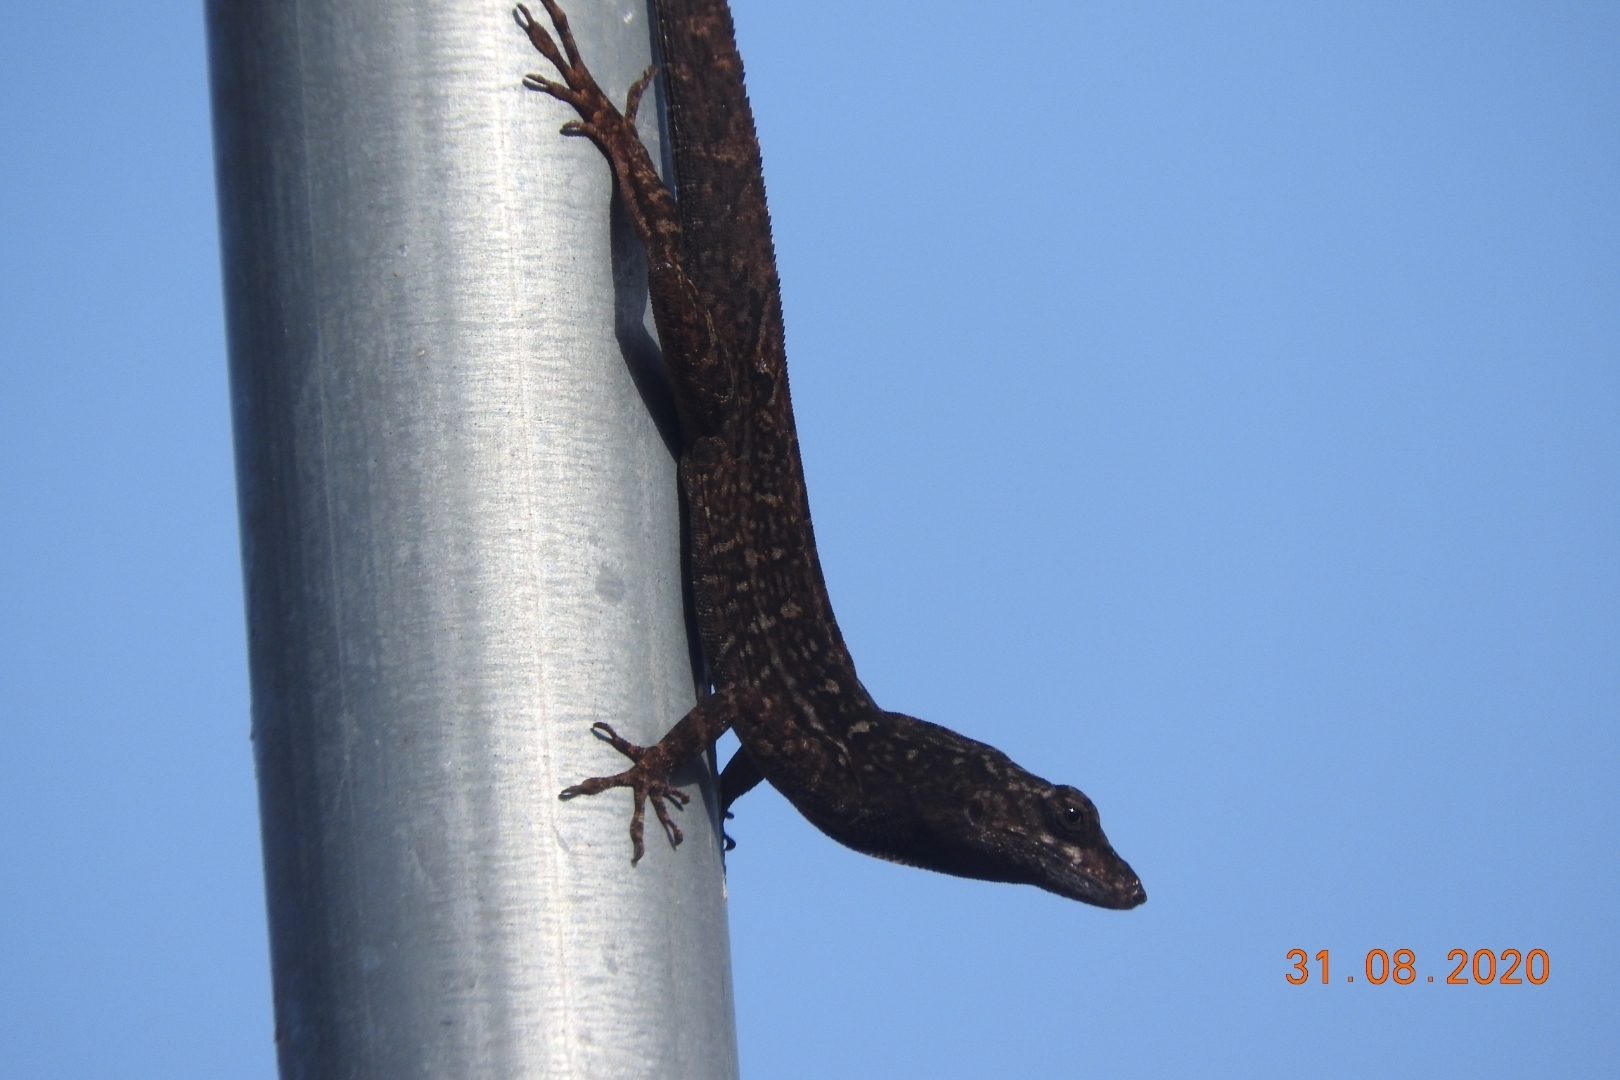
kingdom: Animalia
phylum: Chordata
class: Squamata
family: Dactyloidae
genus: Anolis
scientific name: Anolis sagrei
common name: Brown anole
